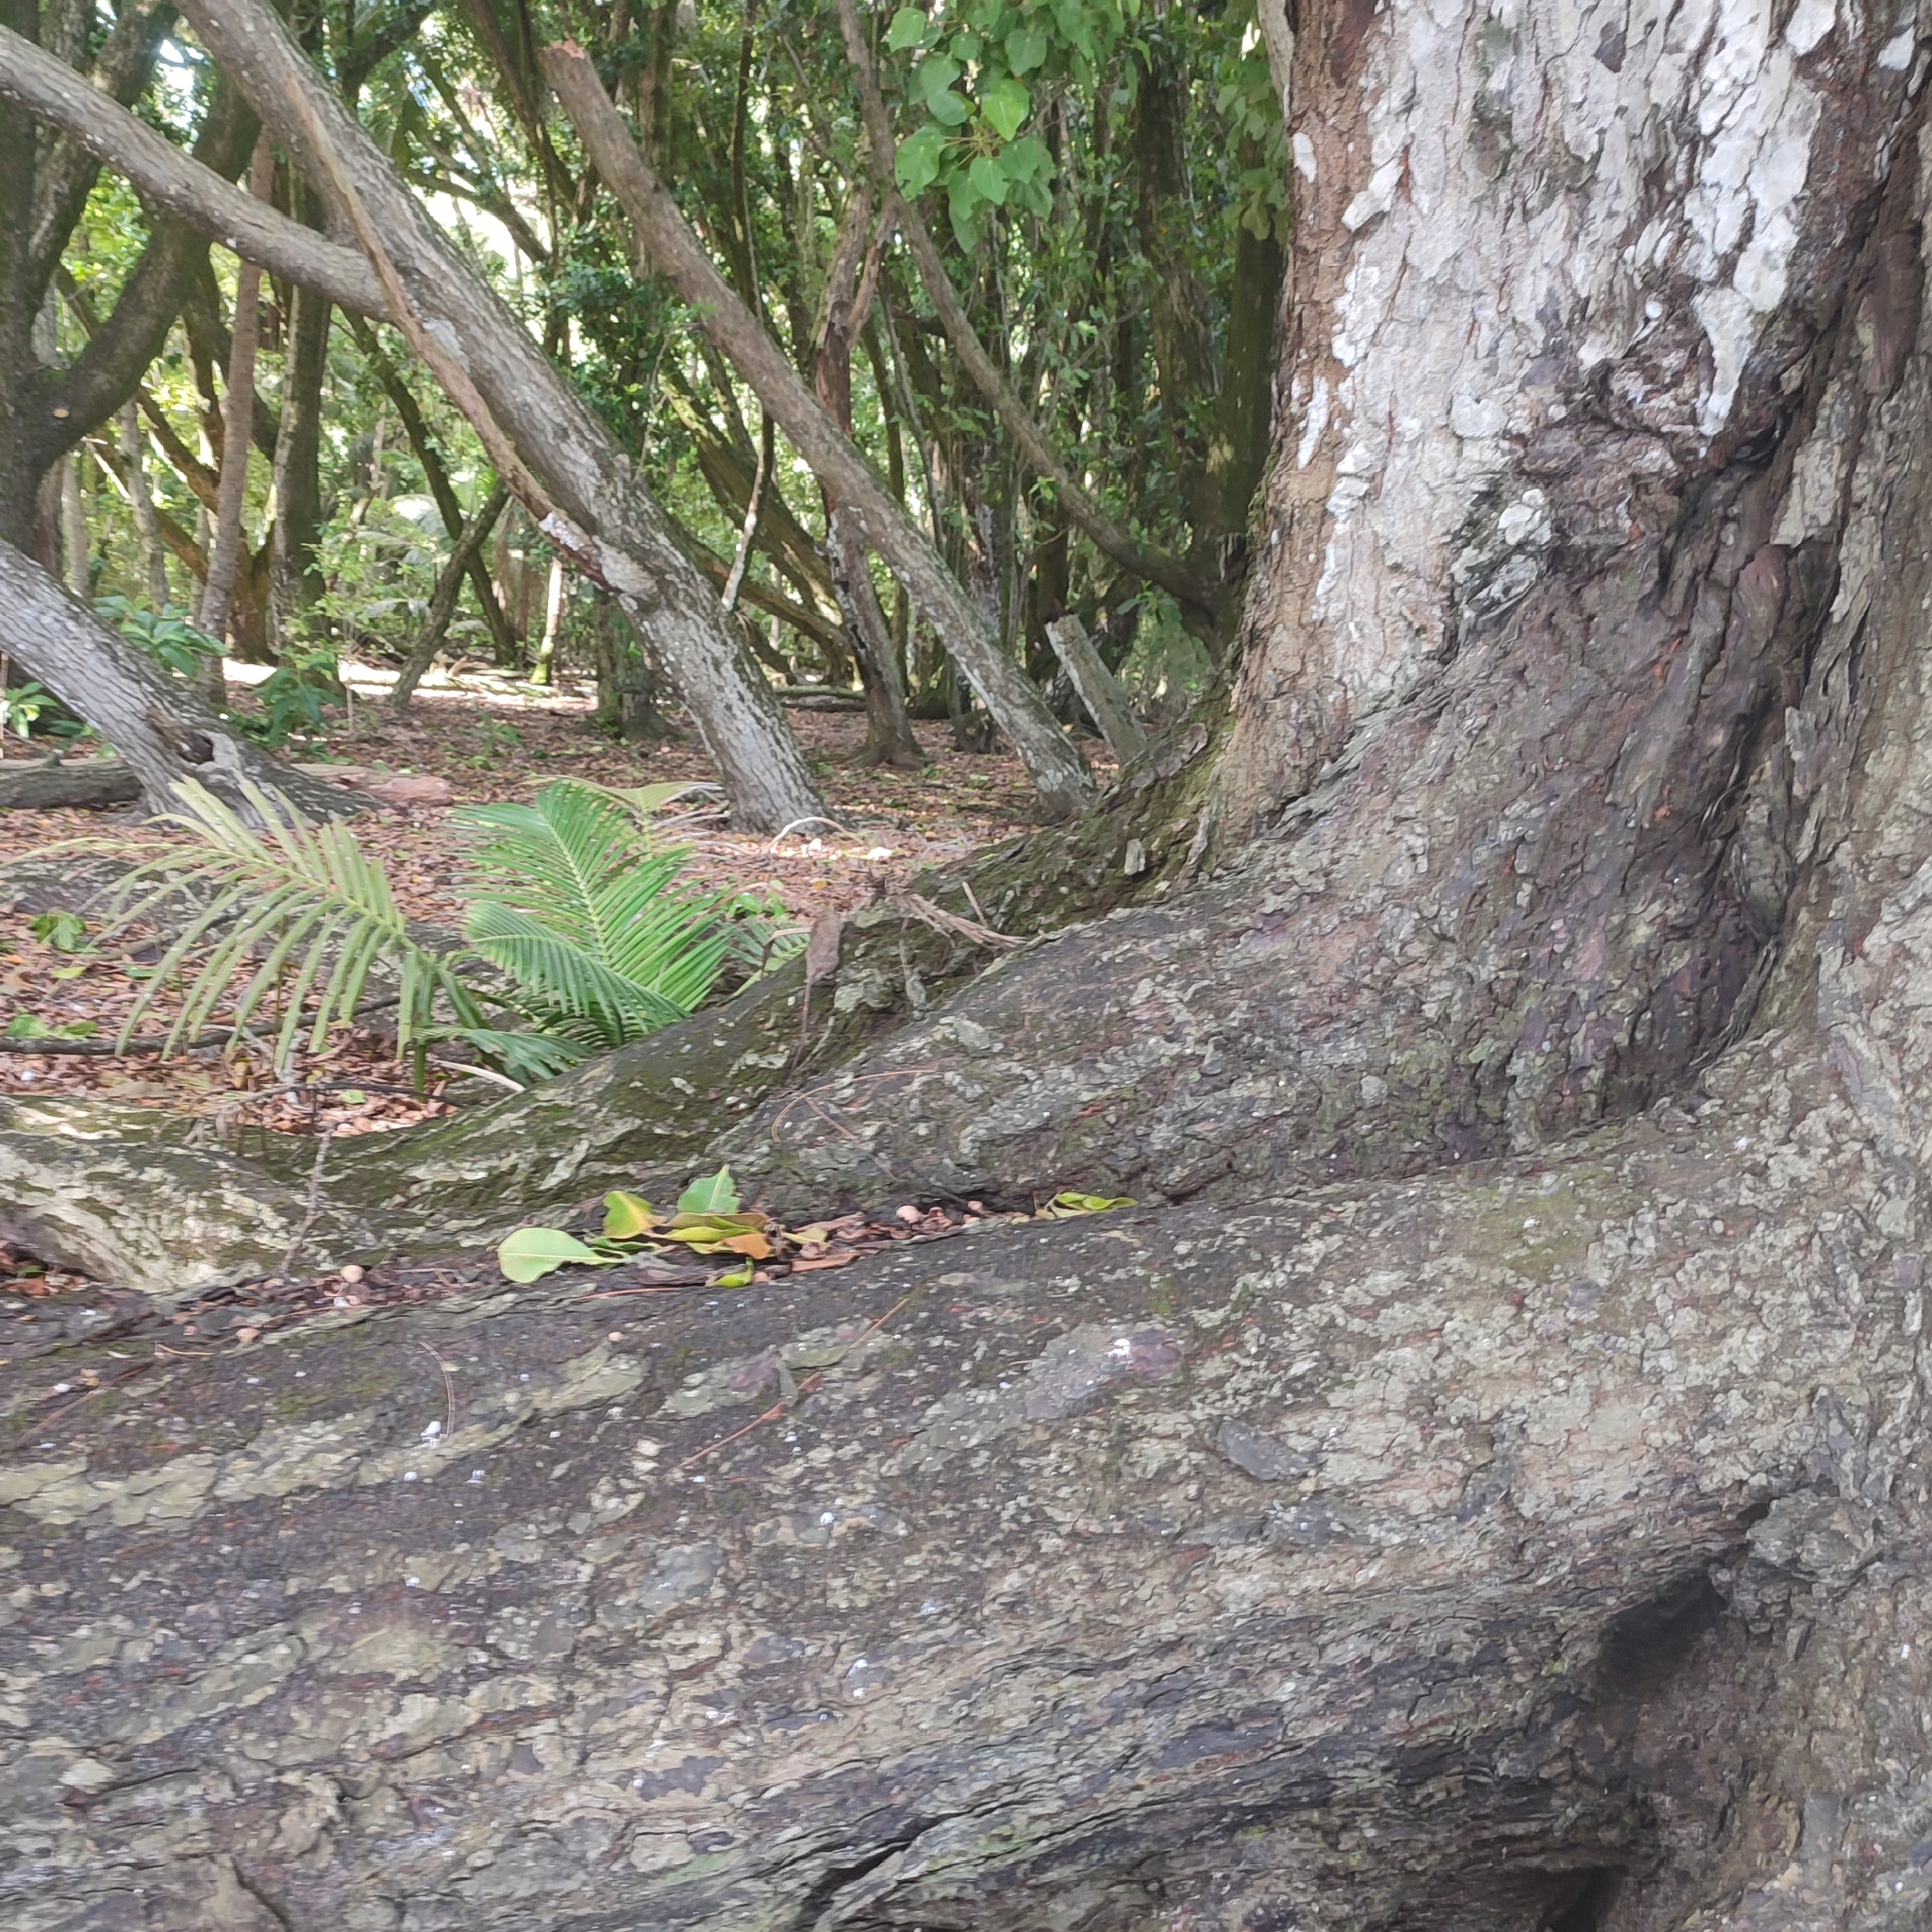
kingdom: Animalia
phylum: Chordata
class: Mammalia
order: Rodentia
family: Muridae
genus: Rattus
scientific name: Rattus rattus
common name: Black rat
